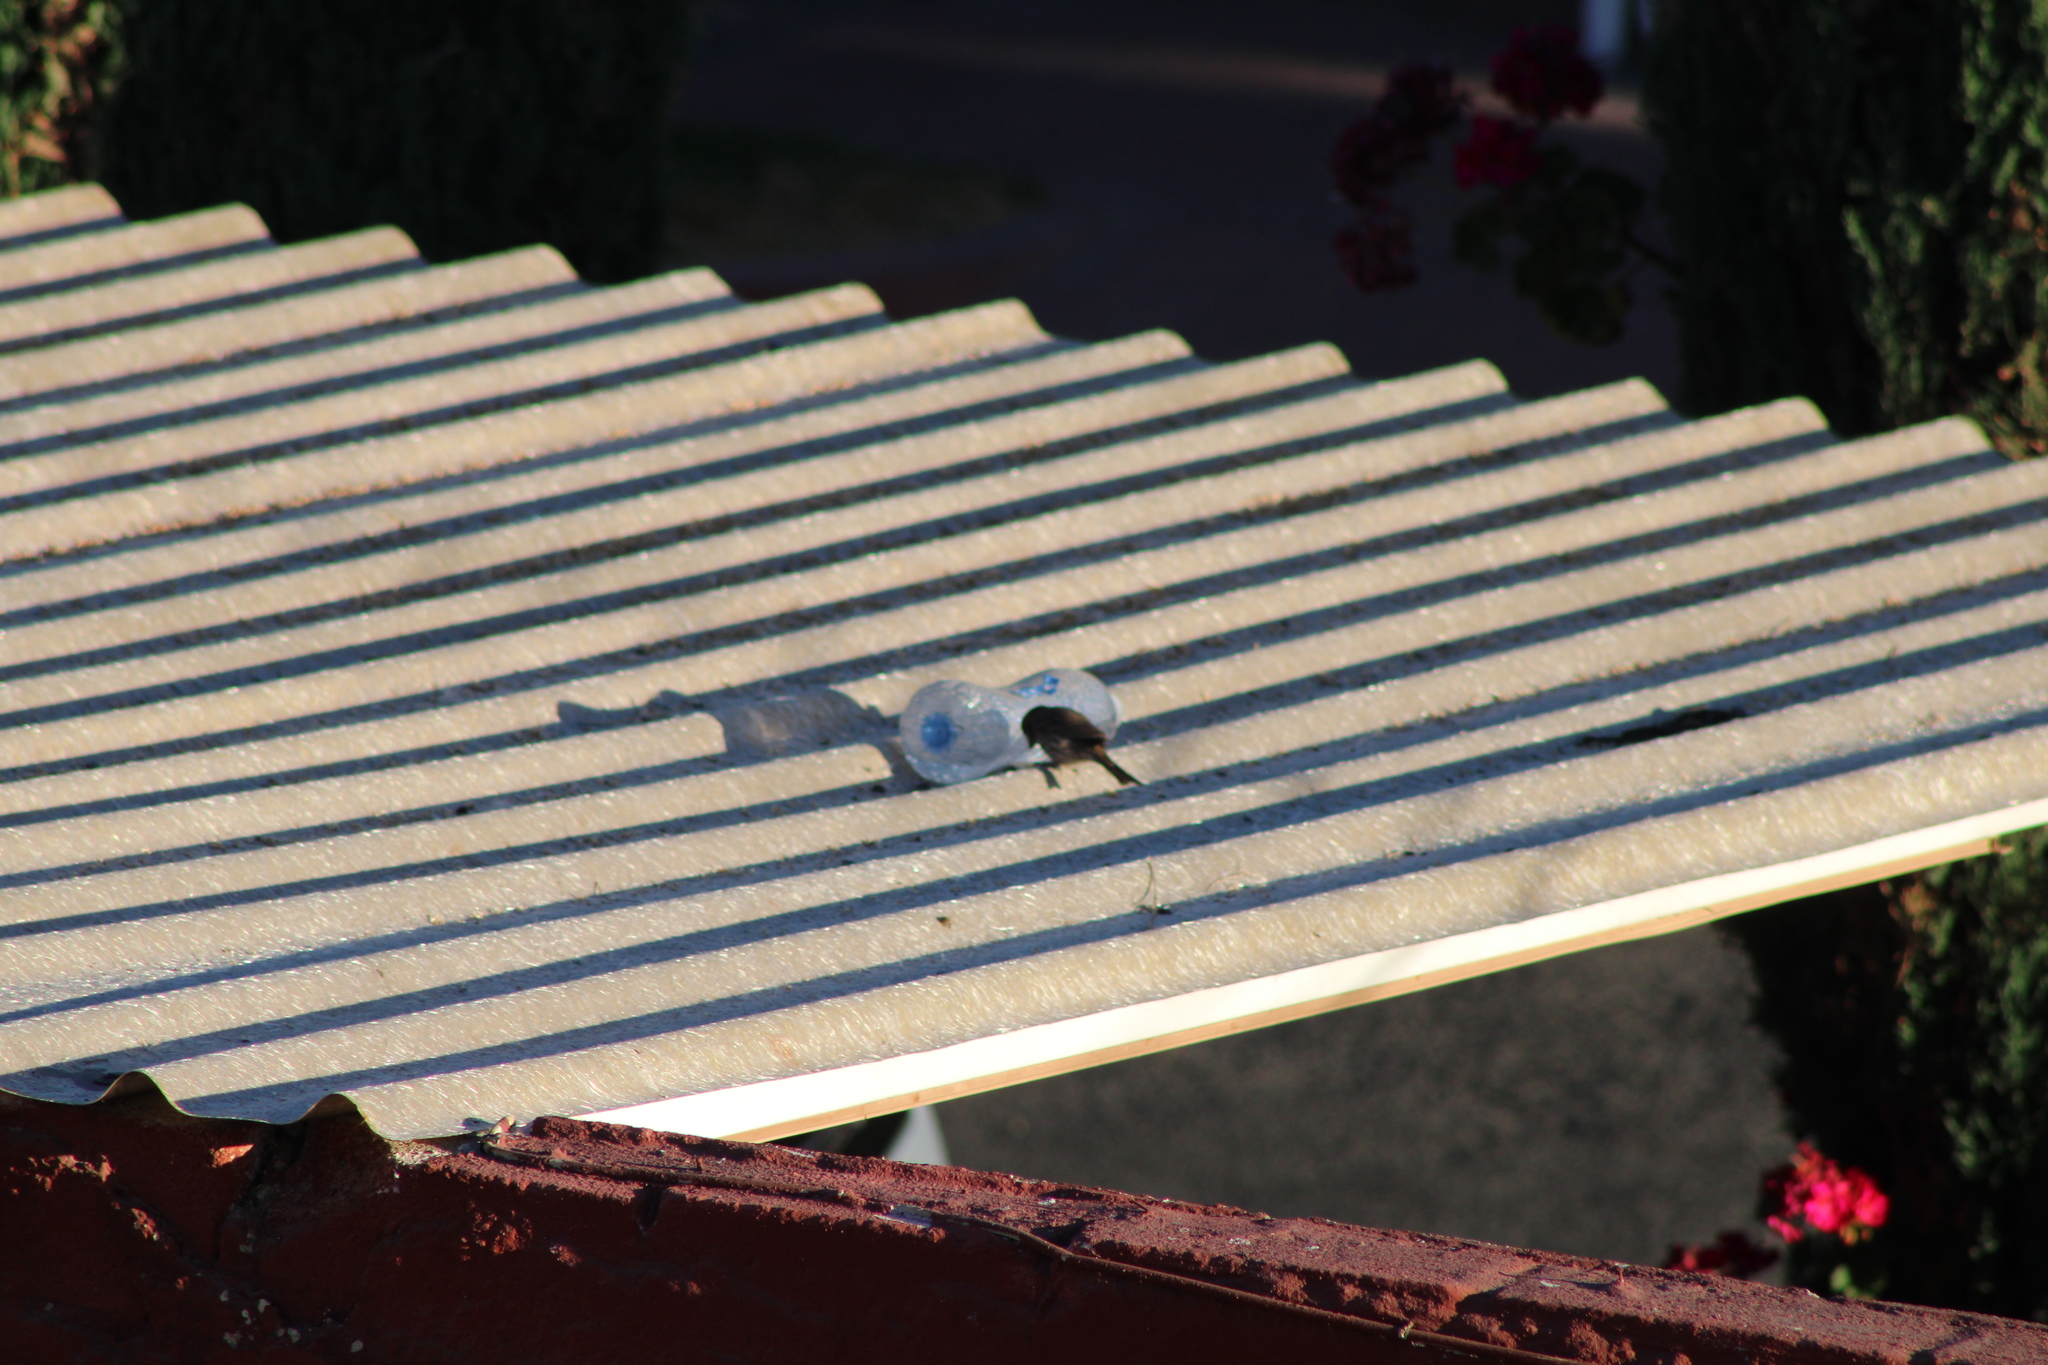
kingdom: Animalia
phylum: Chordata
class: Aves
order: Passeriformes
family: Fringillidae
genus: Haemorhous
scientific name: Haemorhous mexicanus
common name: House finch
